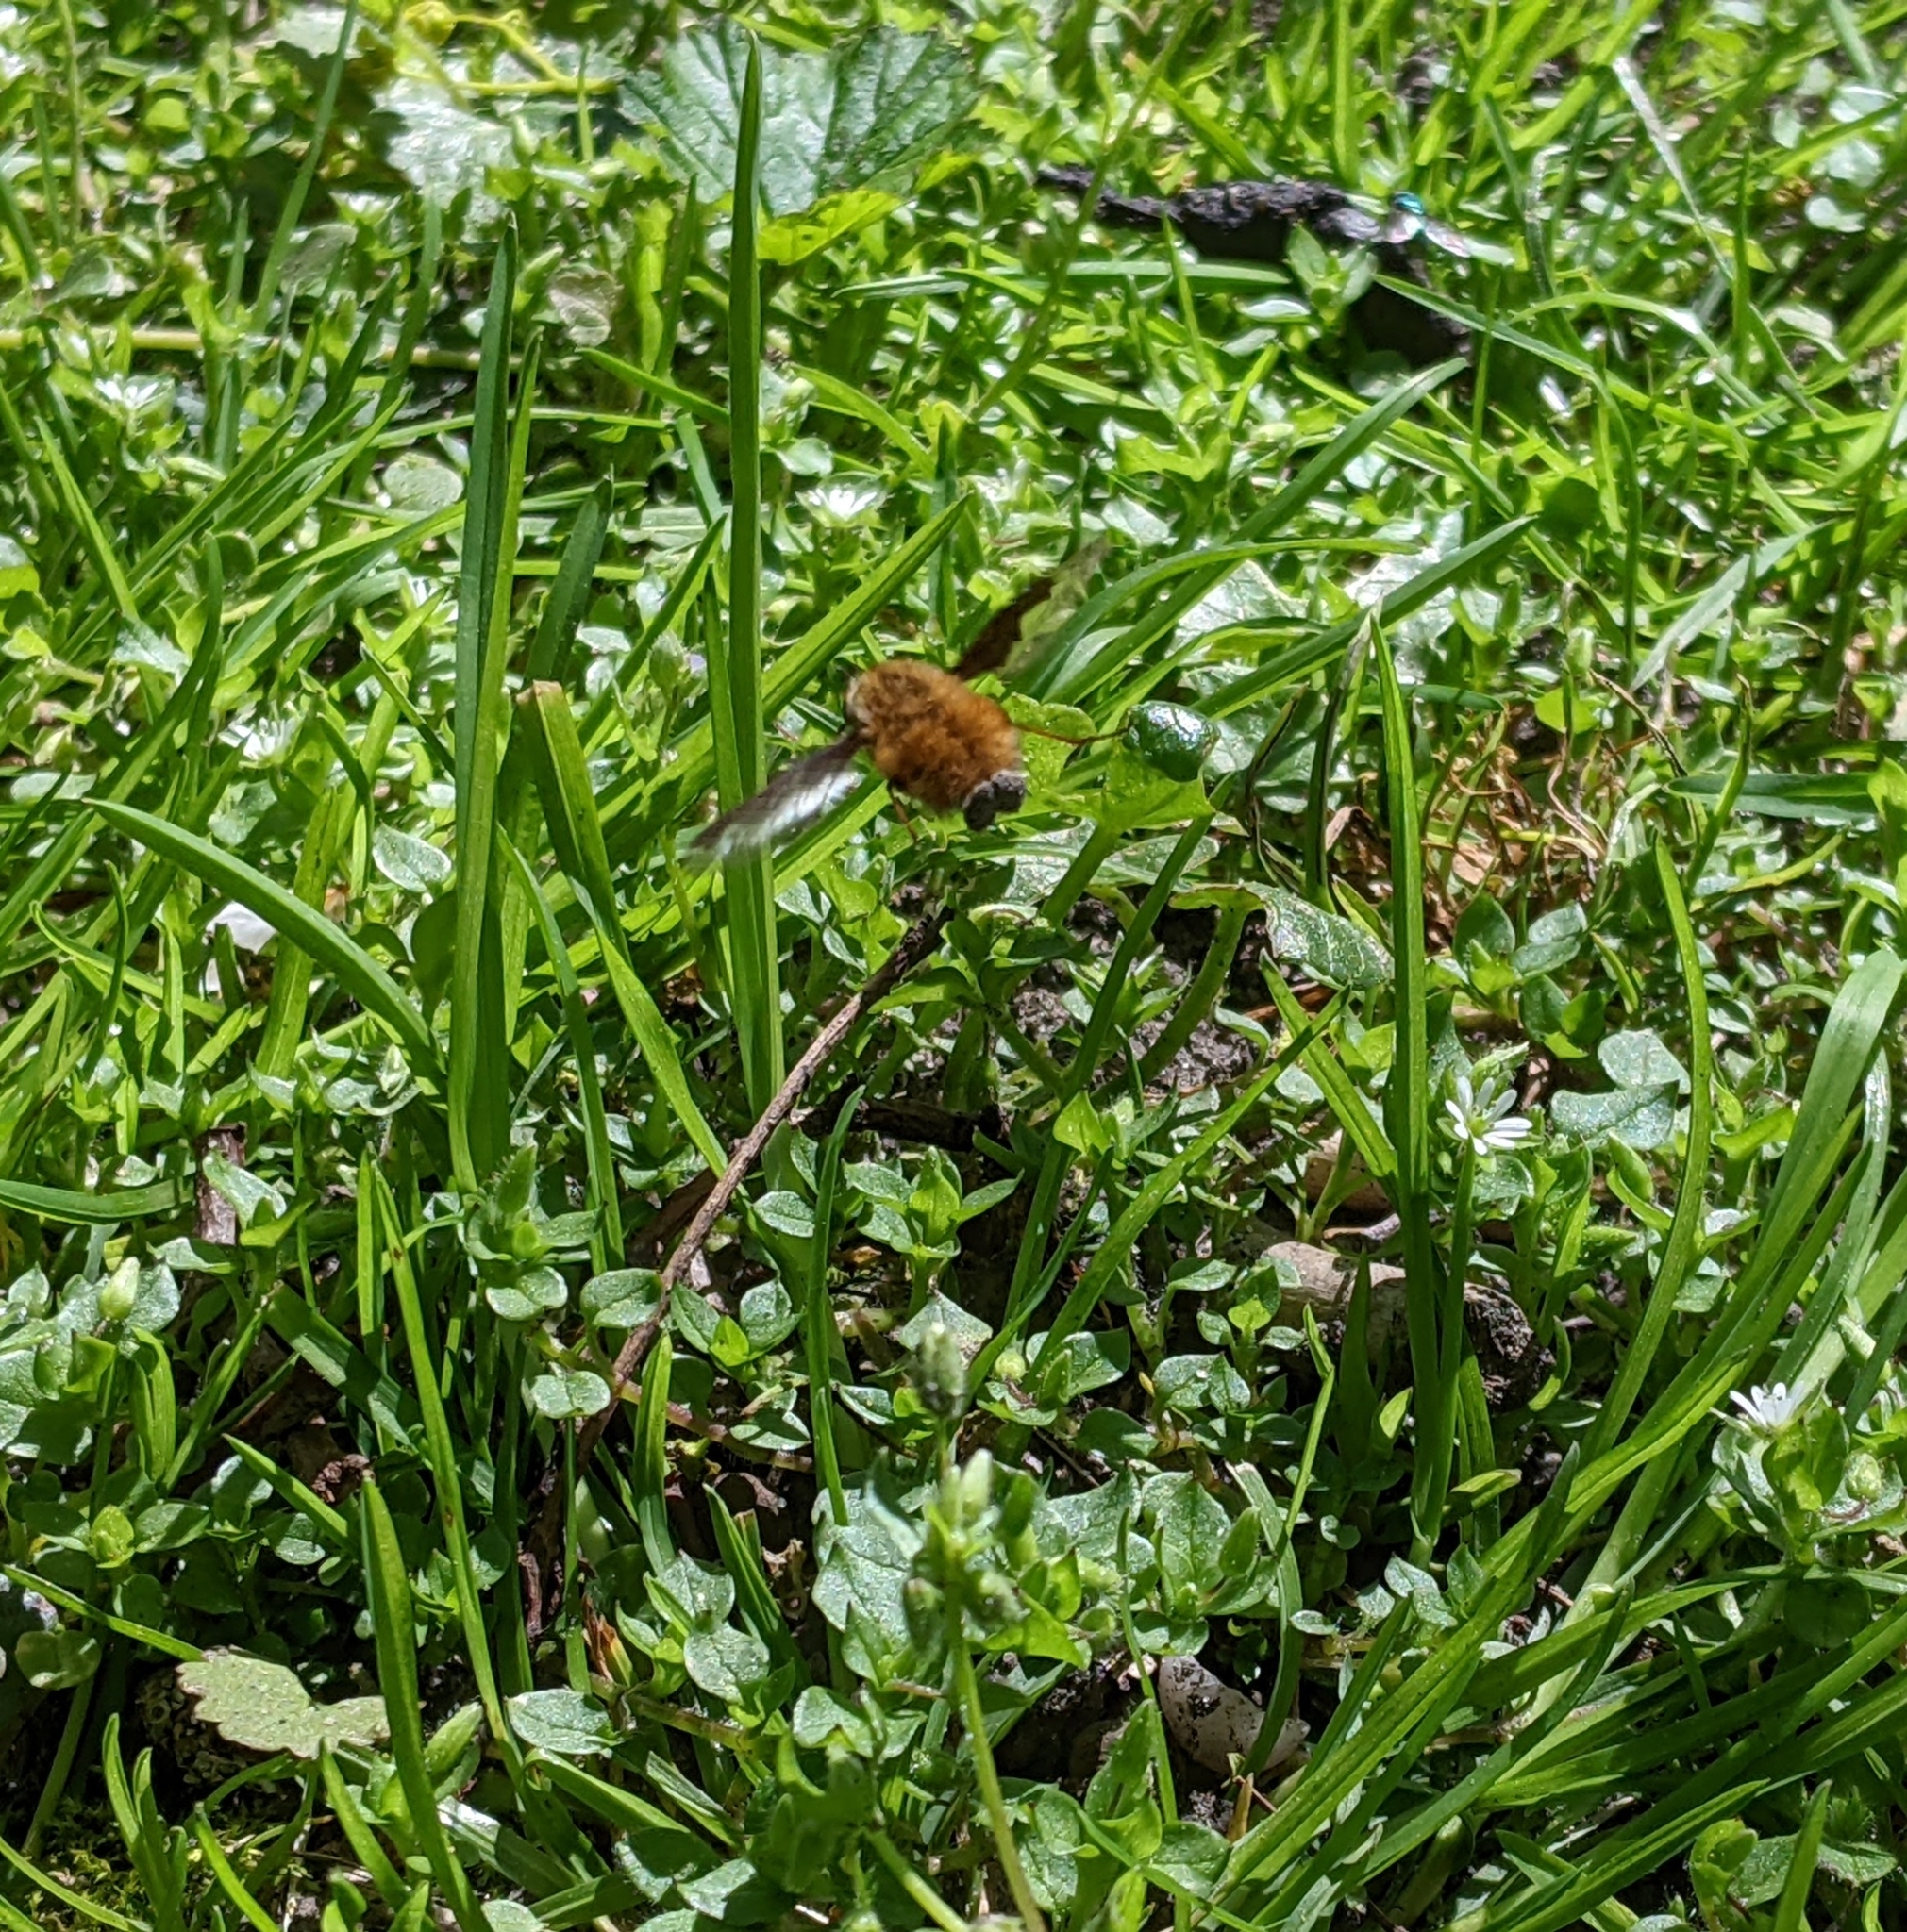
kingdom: Animalia
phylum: Arthropoda
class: Insecta
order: Diptera
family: Bombyliidae
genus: Bombylius
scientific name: Bombylius major
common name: Bee fly
